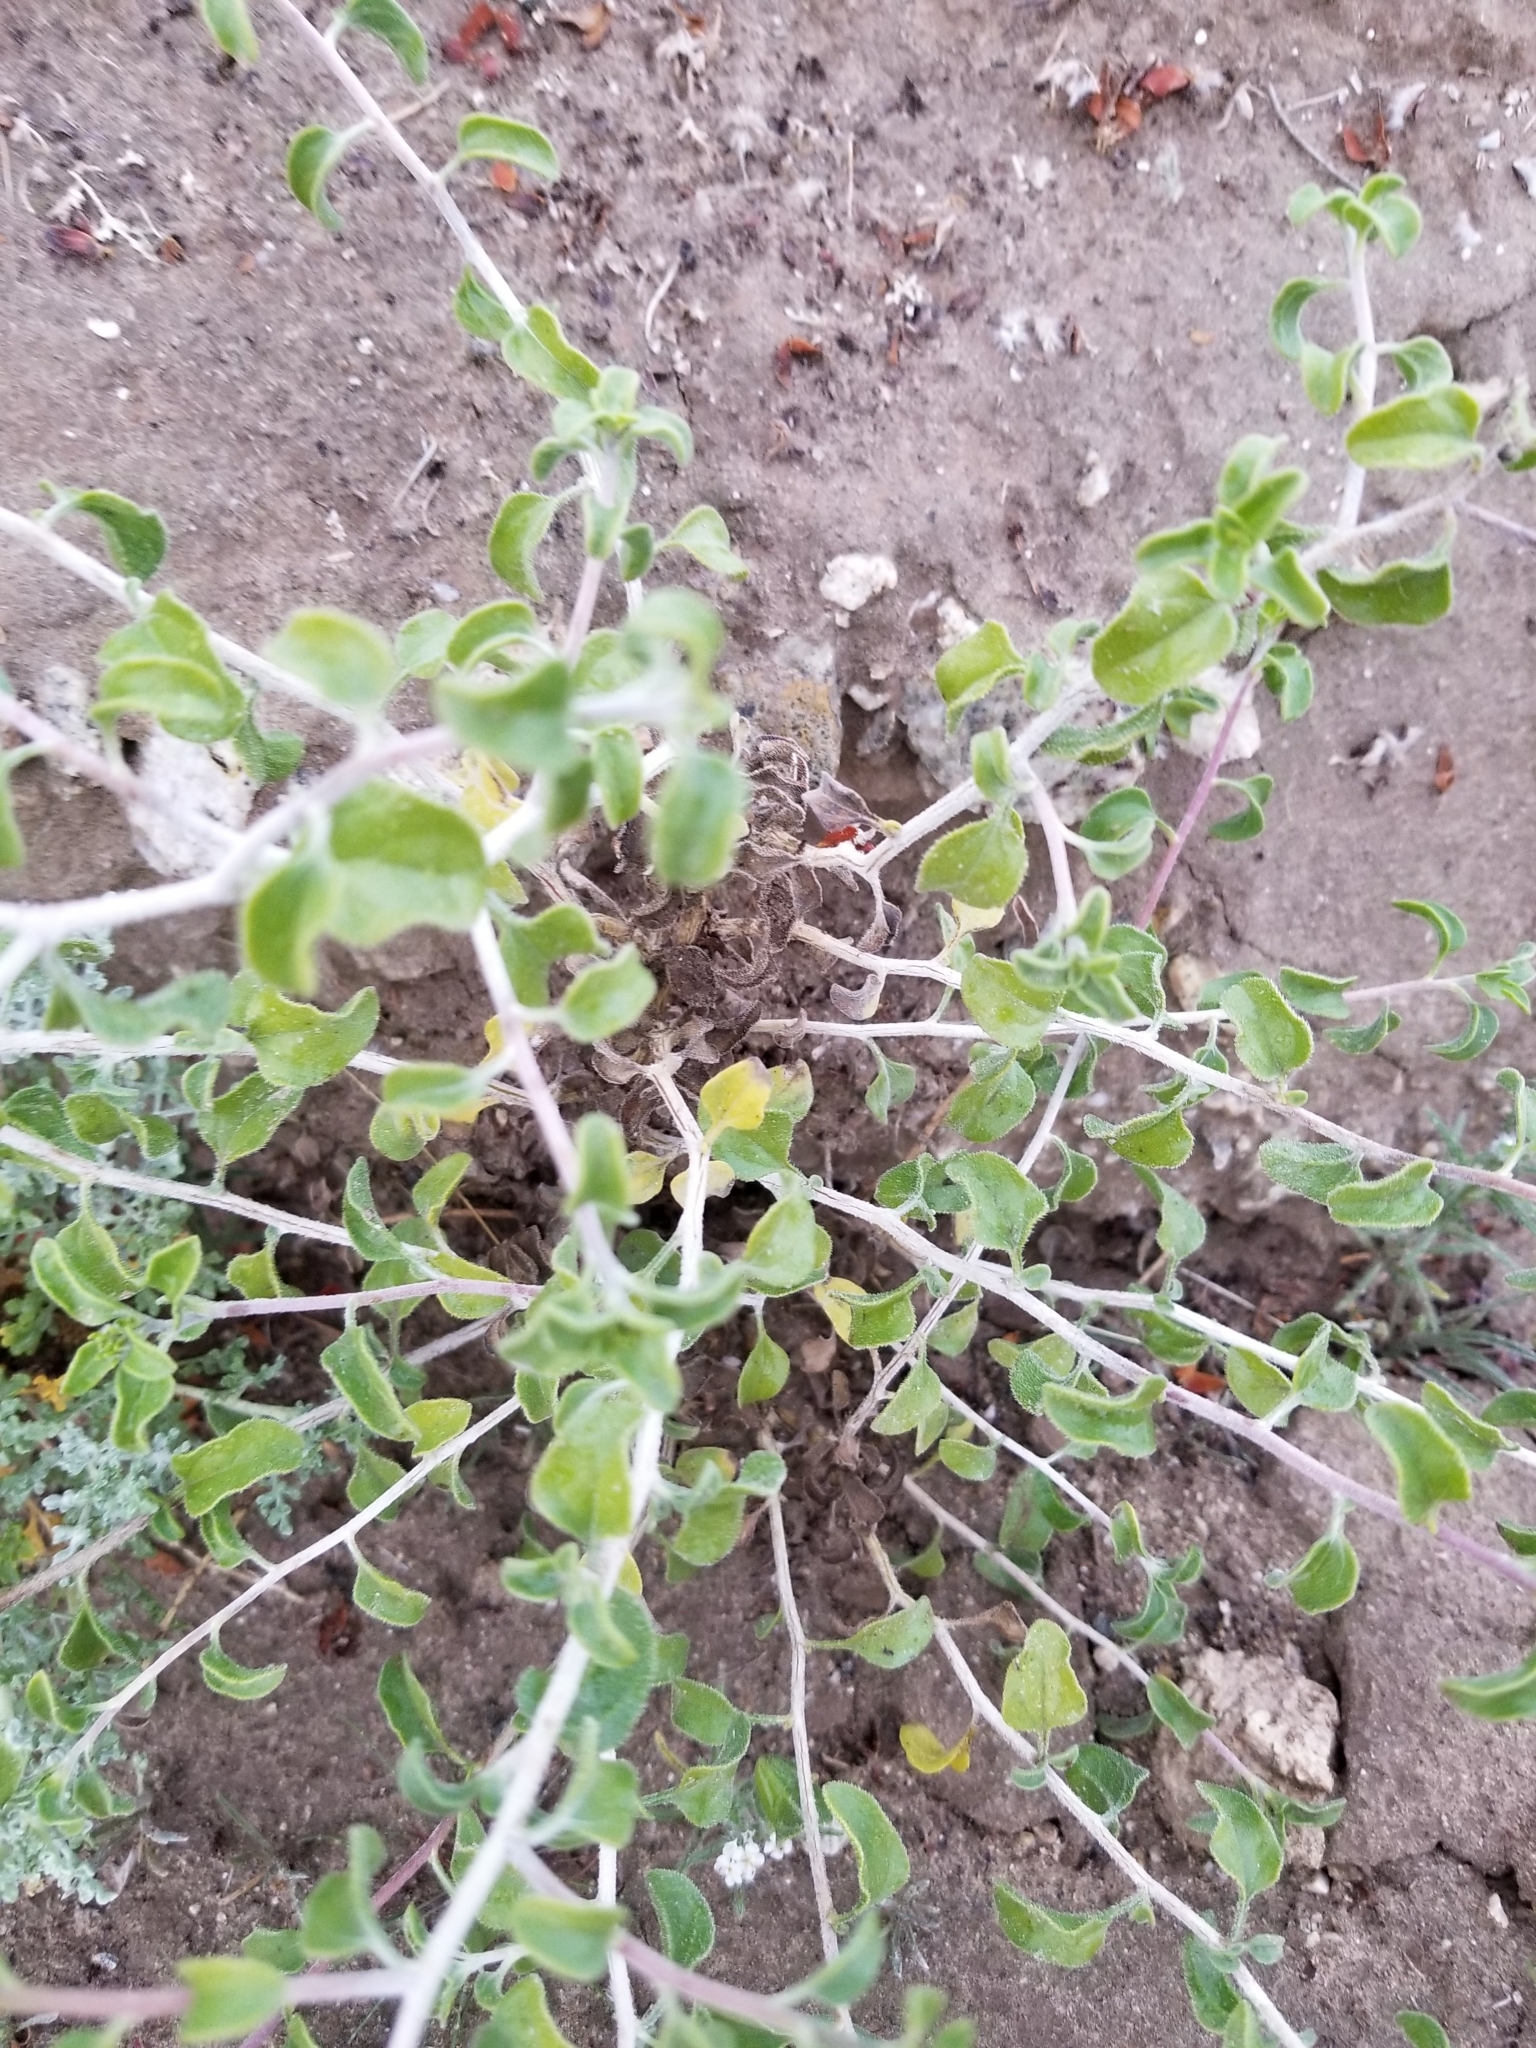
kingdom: Plantae
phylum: Tracheophyta
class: Magnoliopsida
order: Asterales
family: Asteraceae
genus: Encelia
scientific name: Encelia frutescens
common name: Bush encelia
